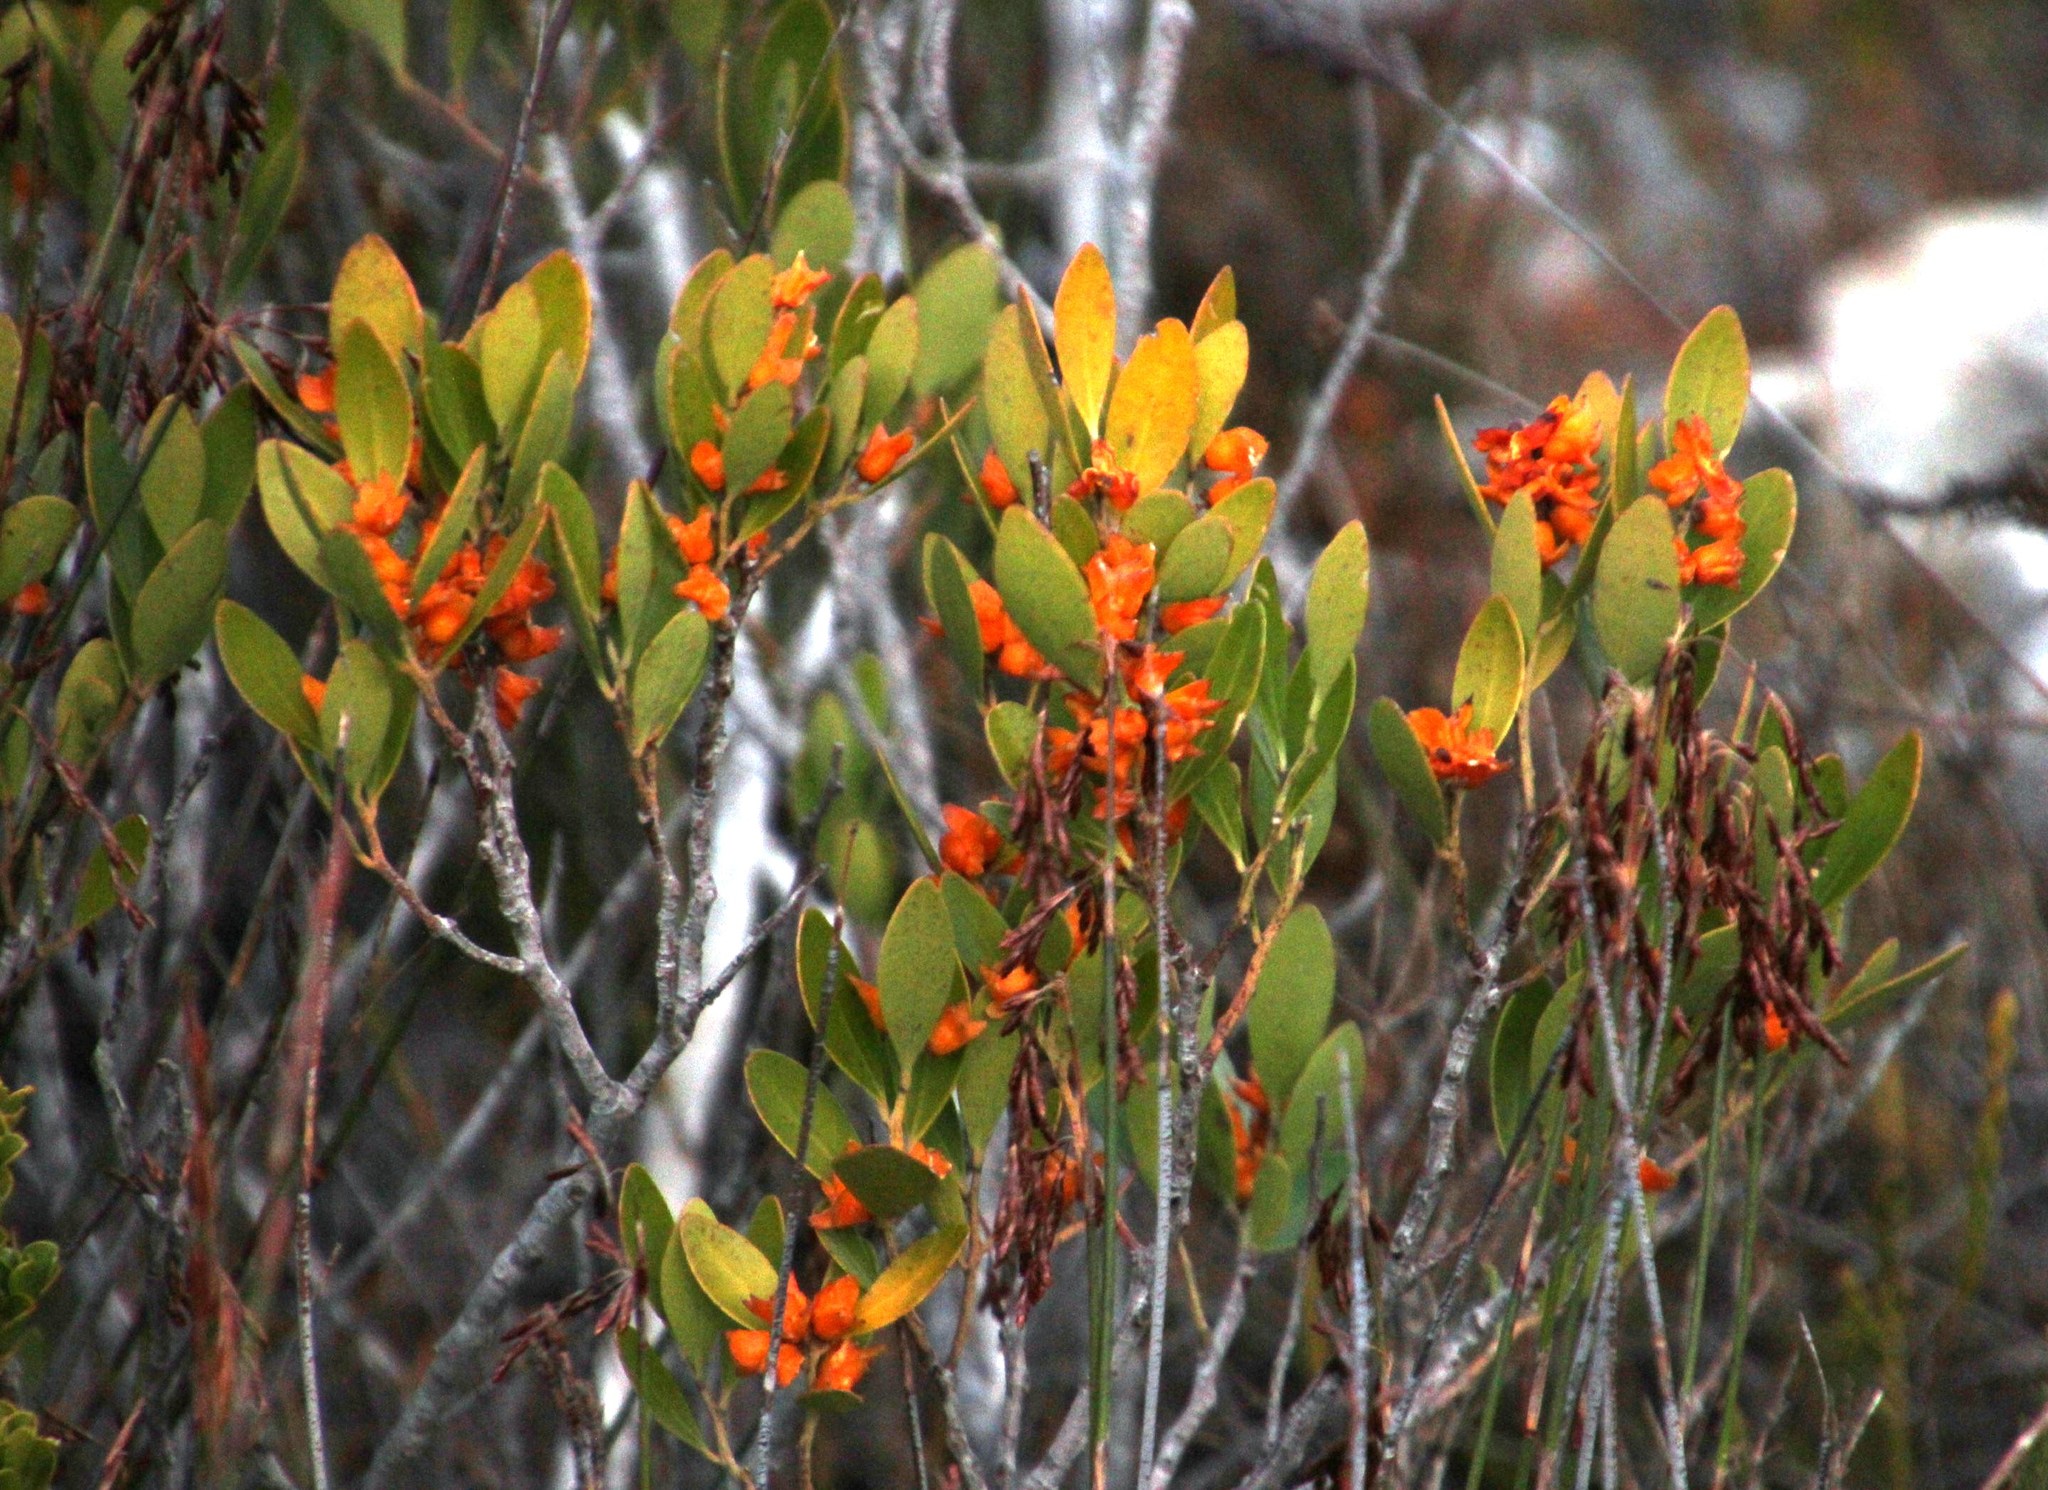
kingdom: Plantae
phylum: Tracheophyta
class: Magnoliopsida
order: Celastrales
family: Celastraceae
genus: Pterocelastrus
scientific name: Pterocelastrus tricuspidatus
